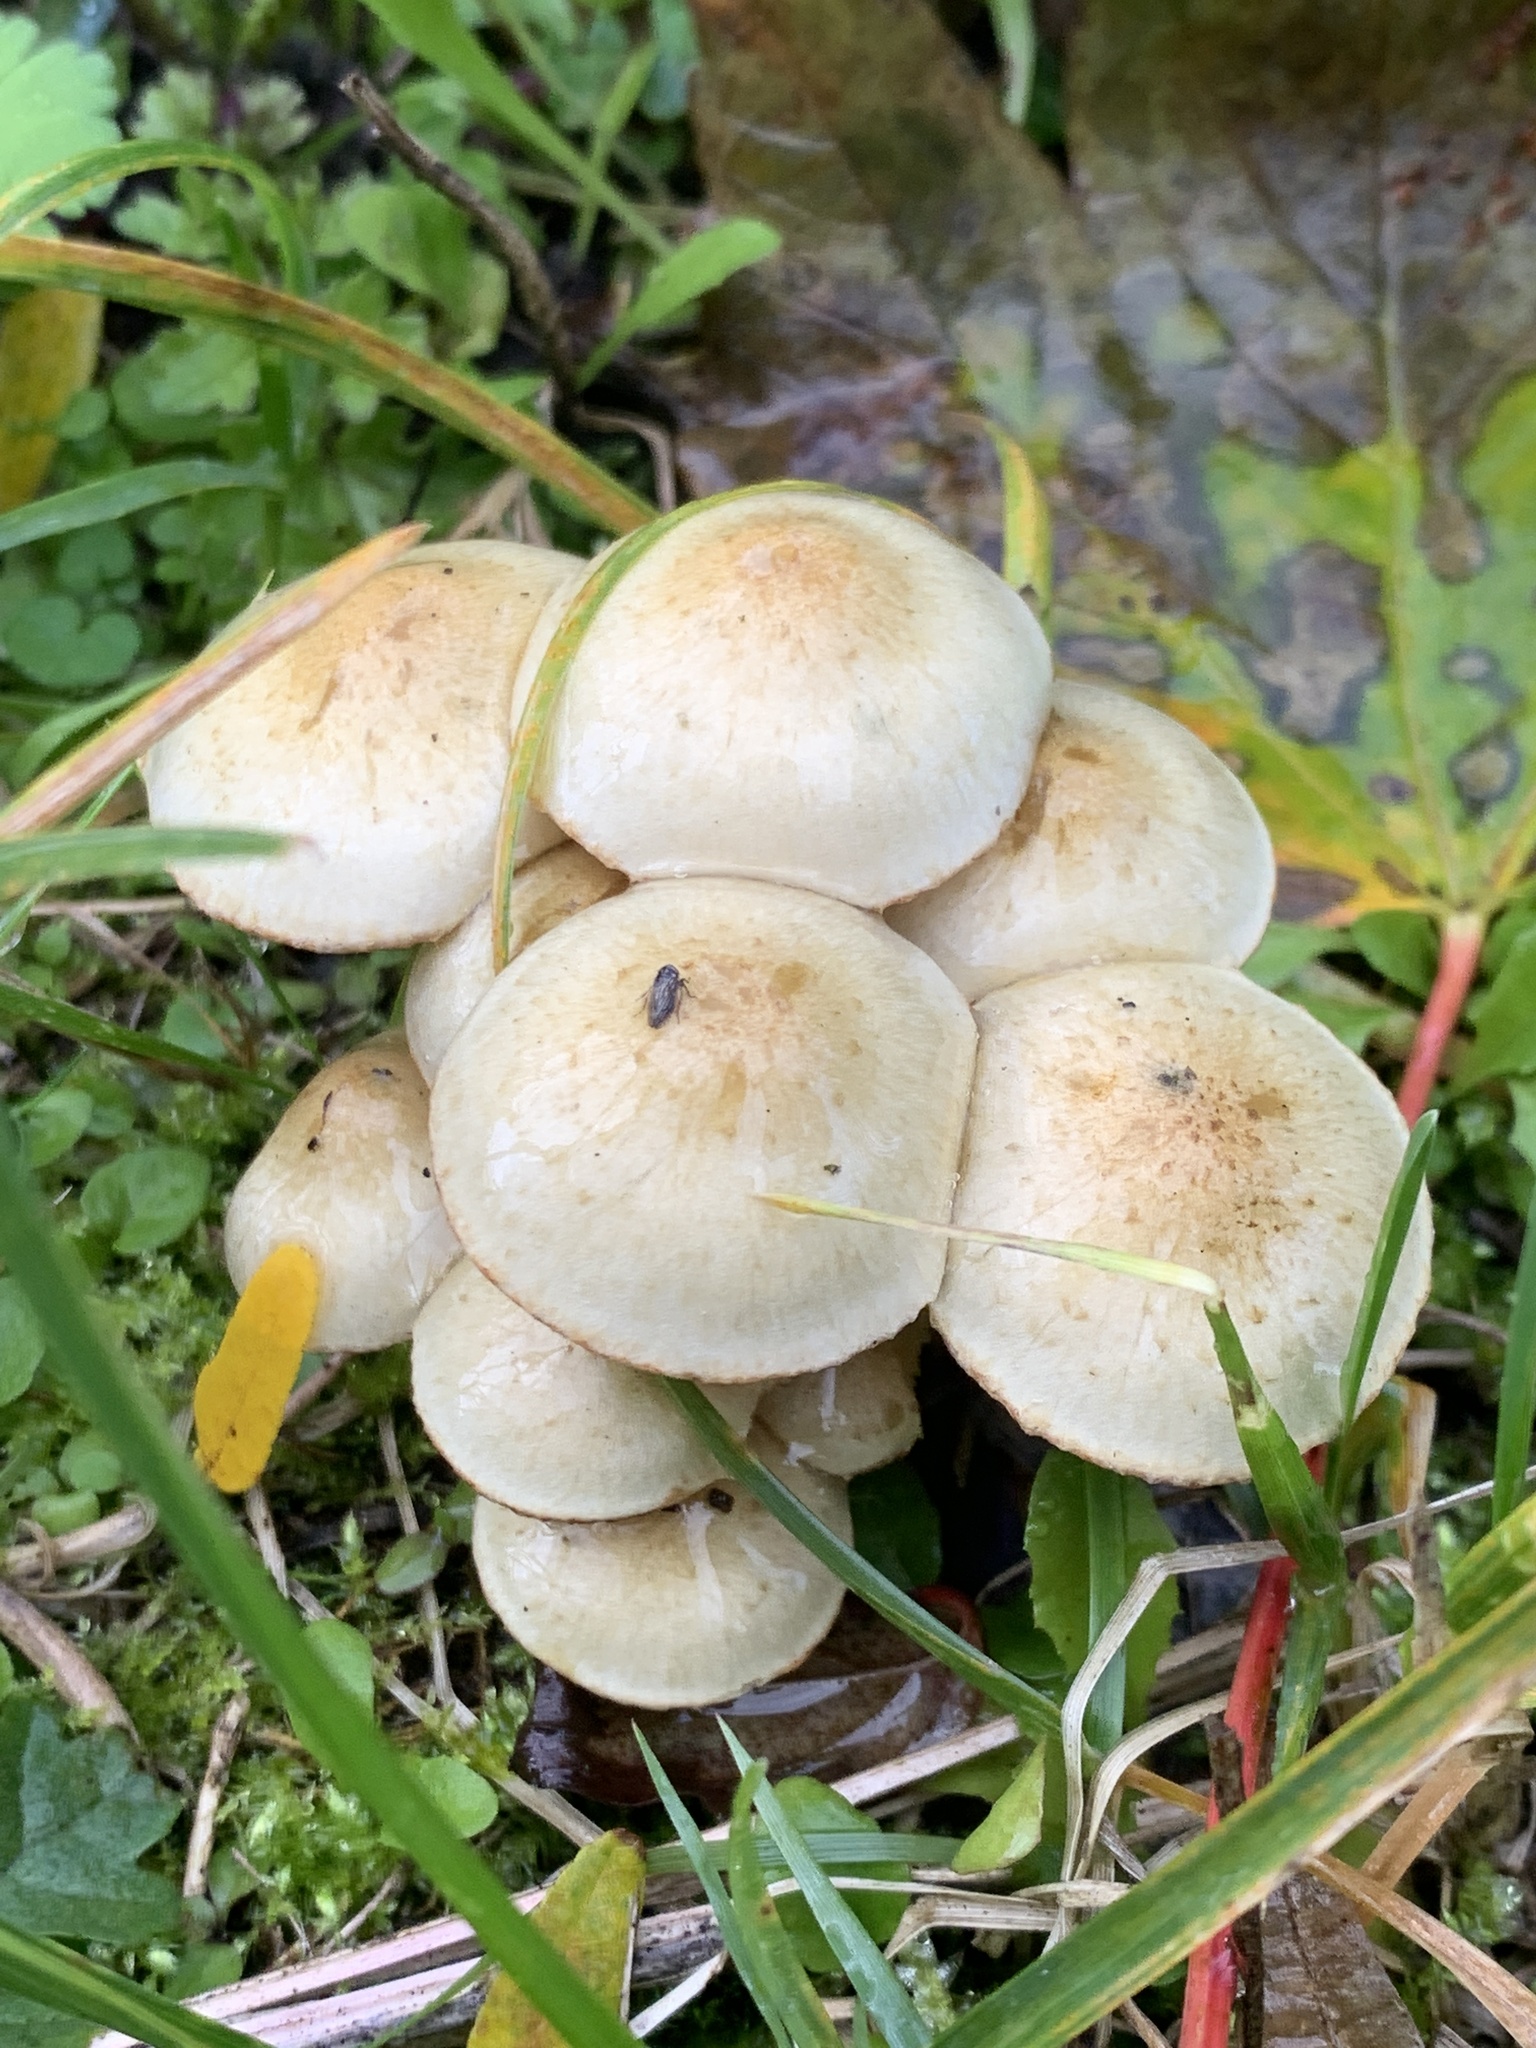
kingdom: Fungi
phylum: Basidiomycota
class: Agaricomycetes
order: Agaricales
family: Strophariaceae
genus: Pholiota
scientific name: Pholiota gummosa
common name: Sticky scalycap
